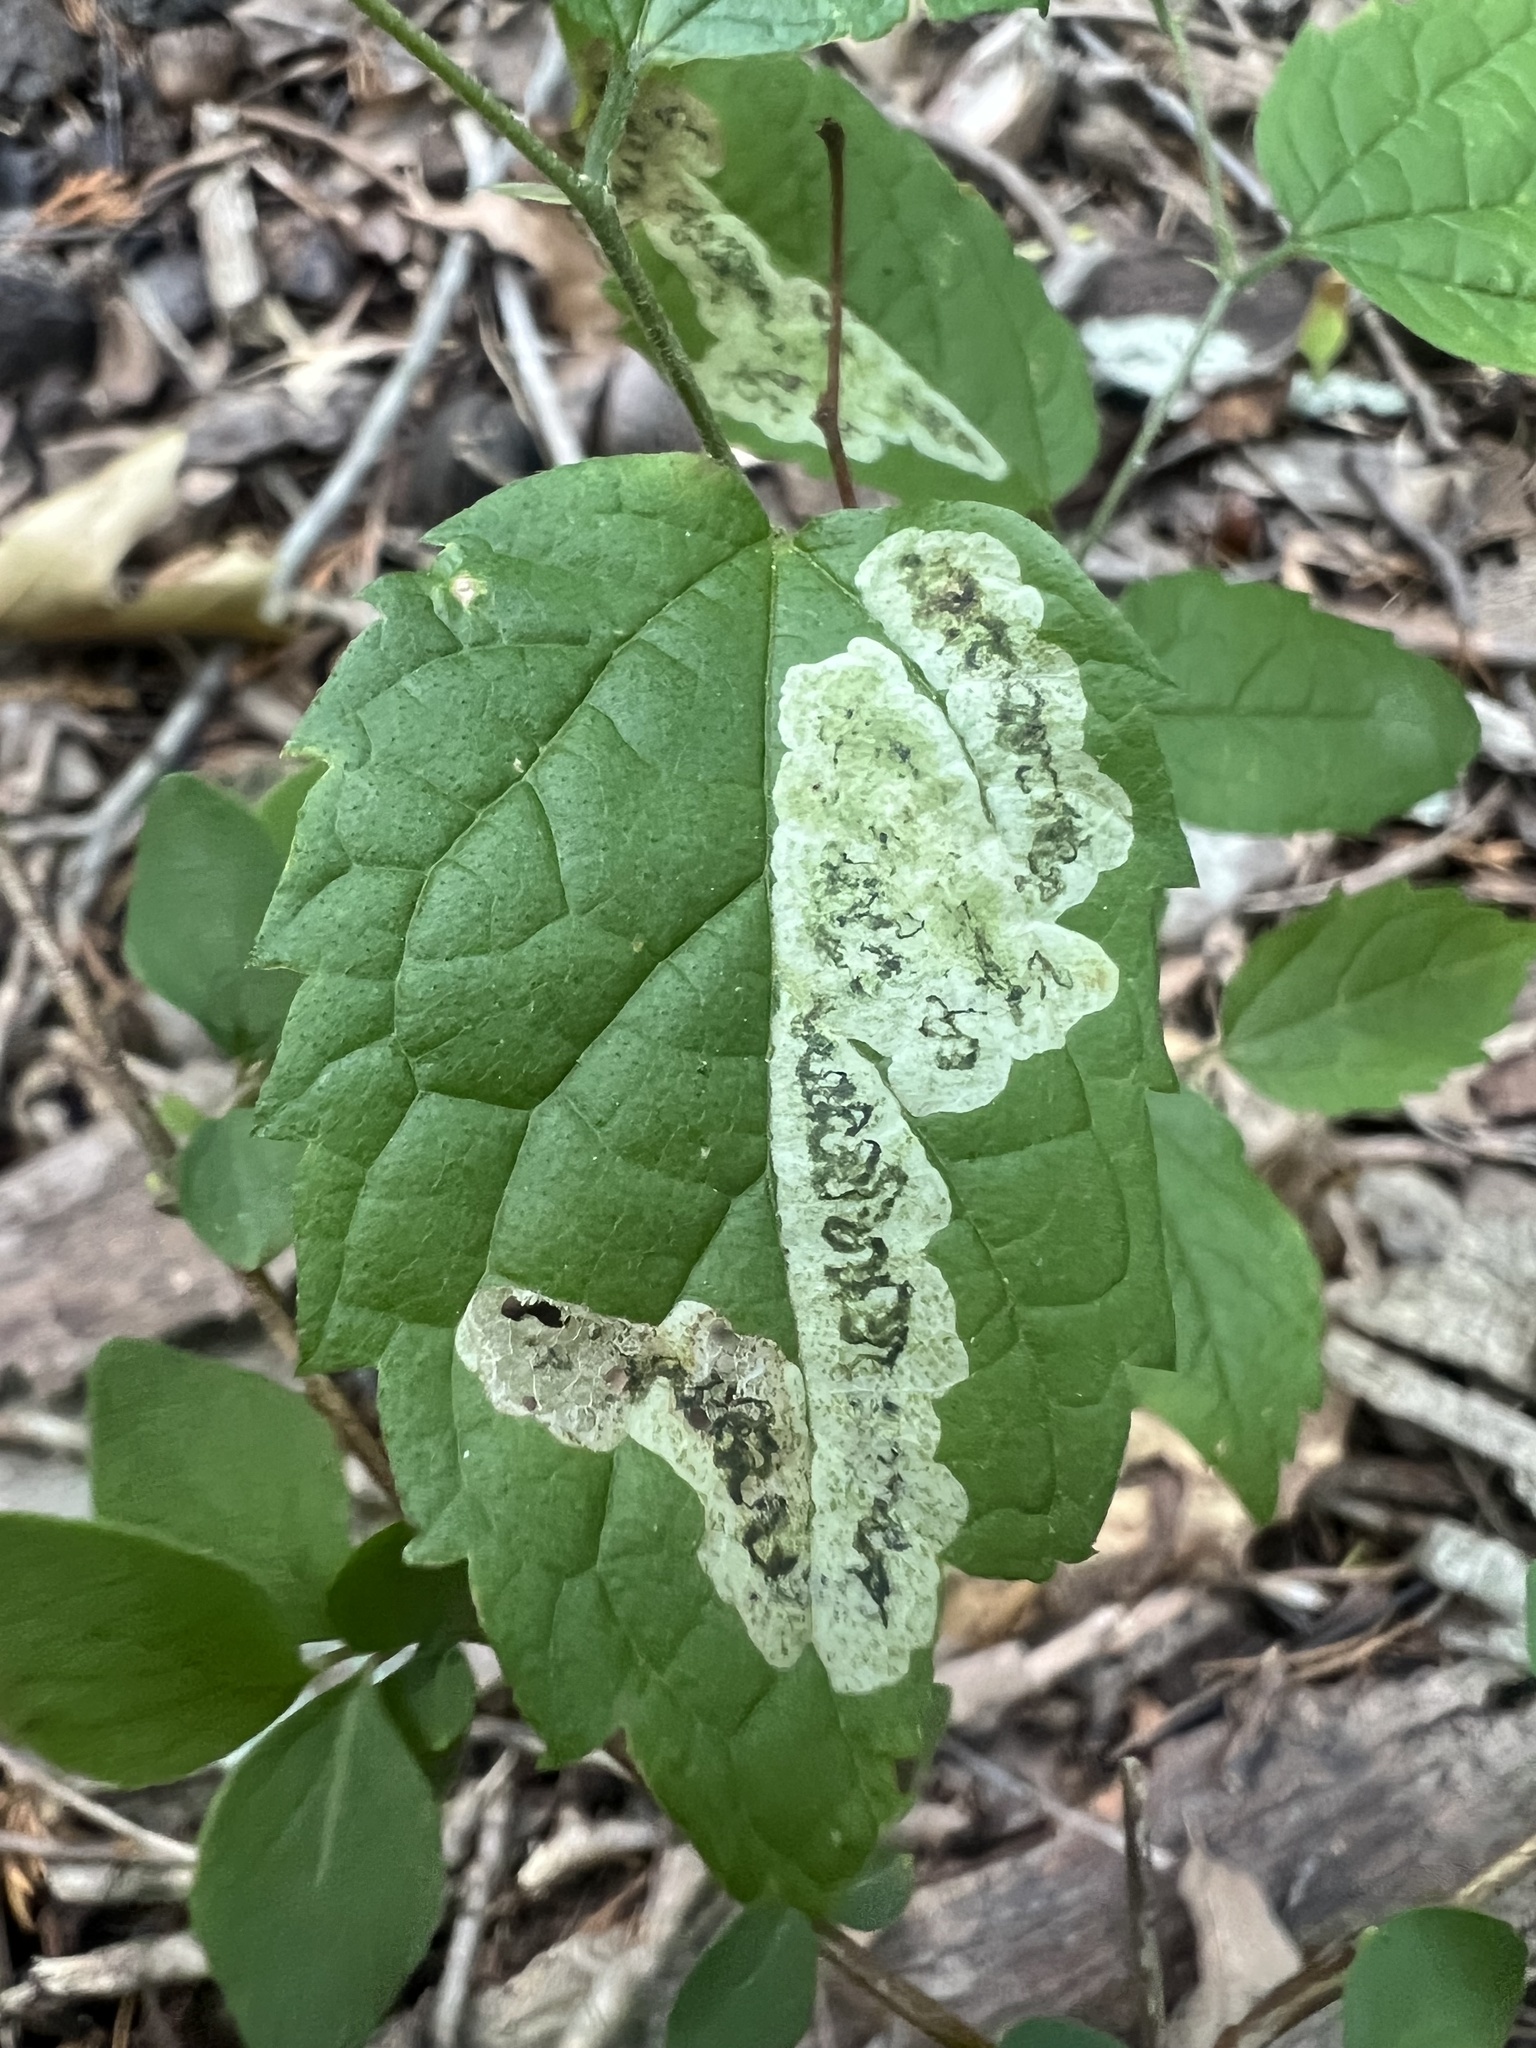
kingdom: Animalia
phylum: Arthropoda
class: Insecta
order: Diptera
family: Agromyzidae
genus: Agromyza
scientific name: Agromyza pallidiseta
